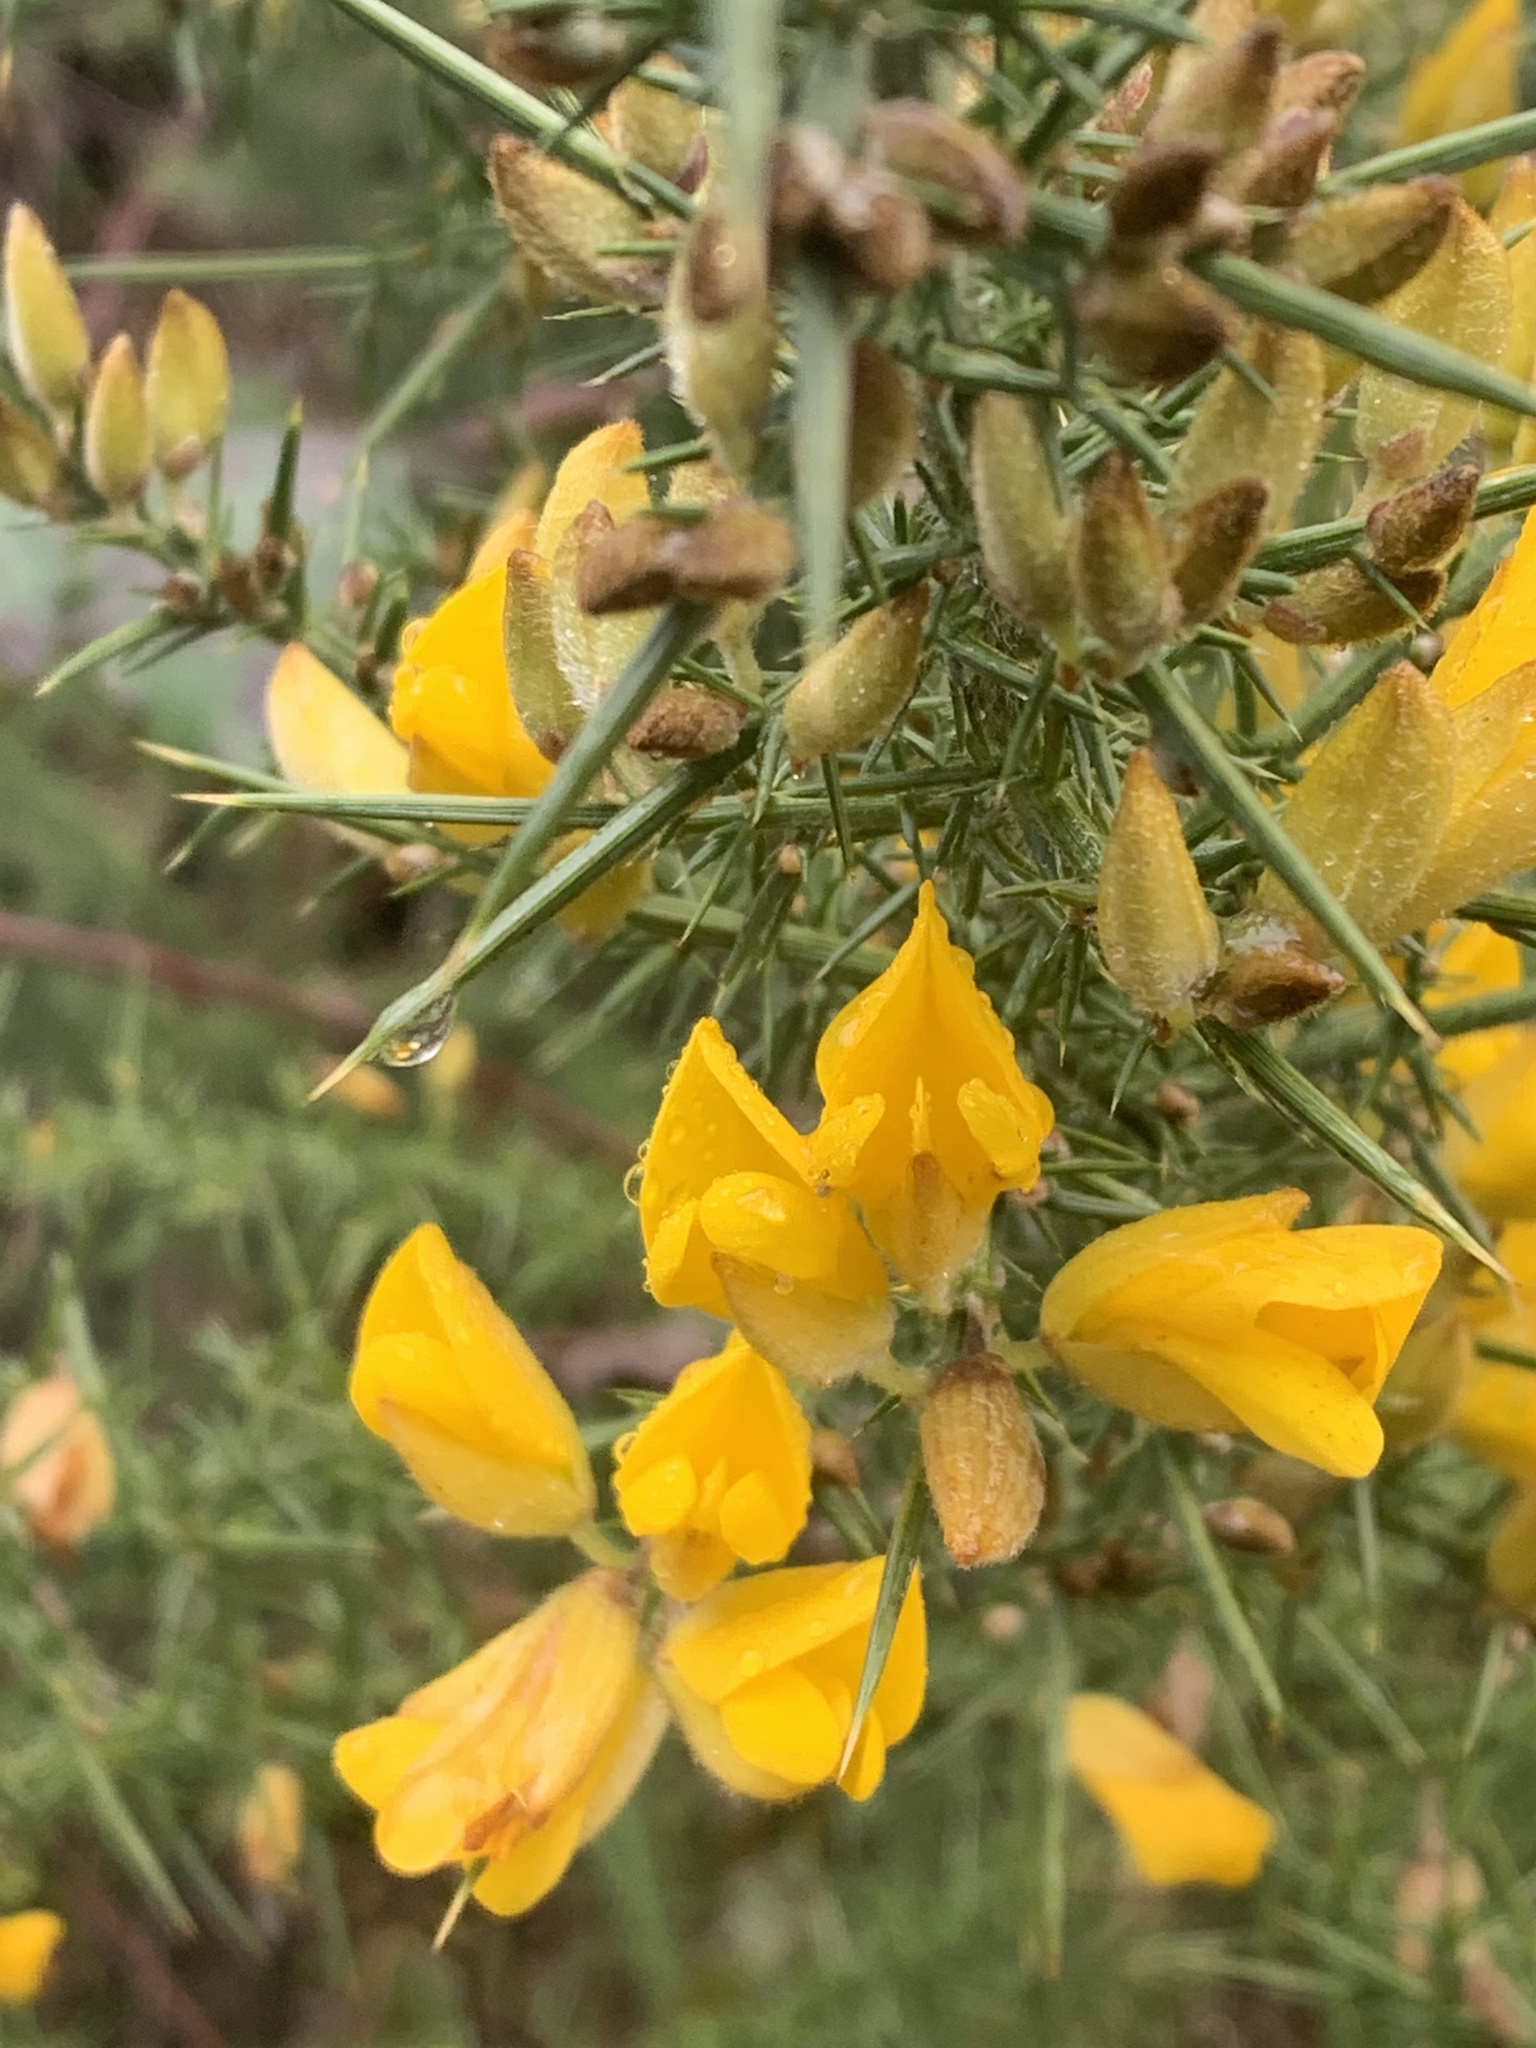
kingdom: Plantae
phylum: Tracheophyta
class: Magnoliopsida
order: Fabales
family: Fabaceae
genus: Ulex
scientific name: Ulex europaeus
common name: Common gorse
